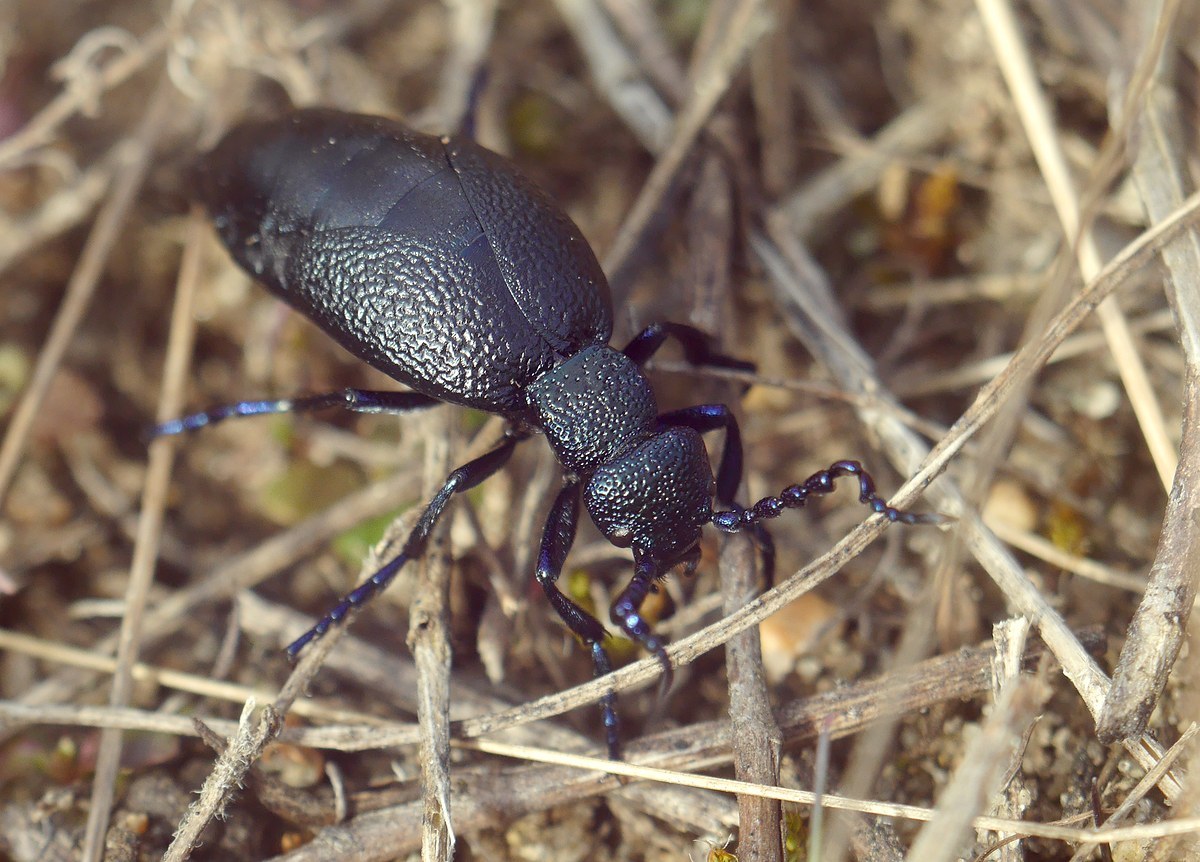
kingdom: Animalia
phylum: Arthropoda
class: Insecta
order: Coleoptera
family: Meloidae
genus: Meloe
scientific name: Meloe proscarabaeus
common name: Black oil-beetle
